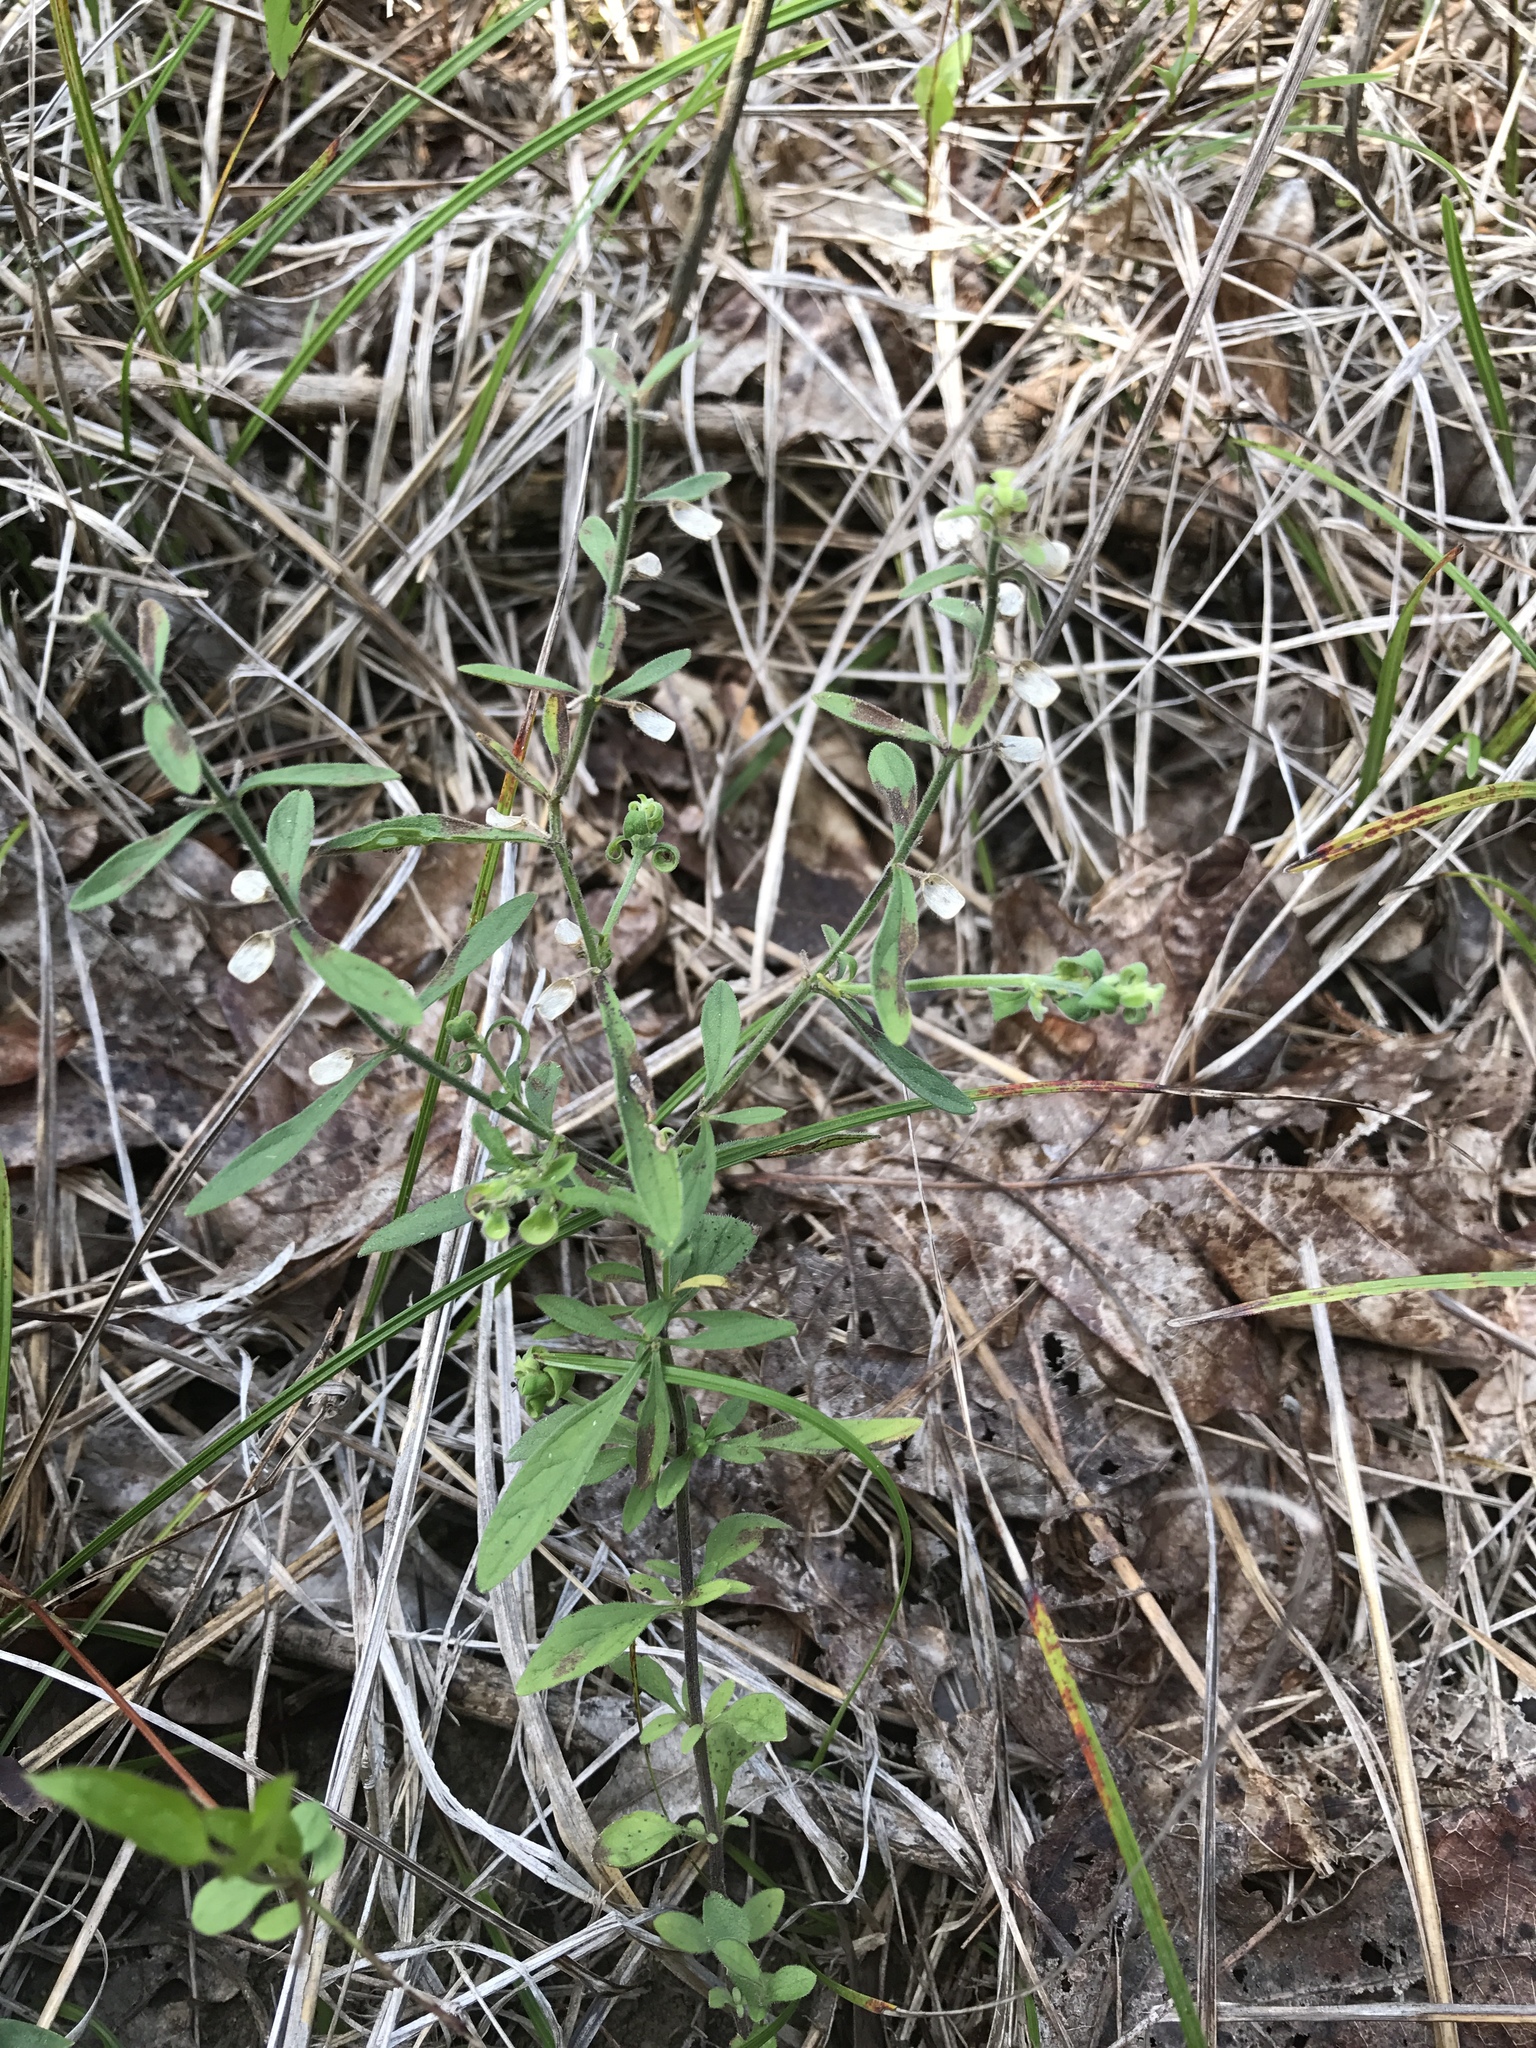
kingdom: Plantae
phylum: Tracheophyta
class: Magnoliopsida
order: Lamiales
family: Lamiaceae
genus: Scutellaria
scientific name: Scutellaria integrifolia
